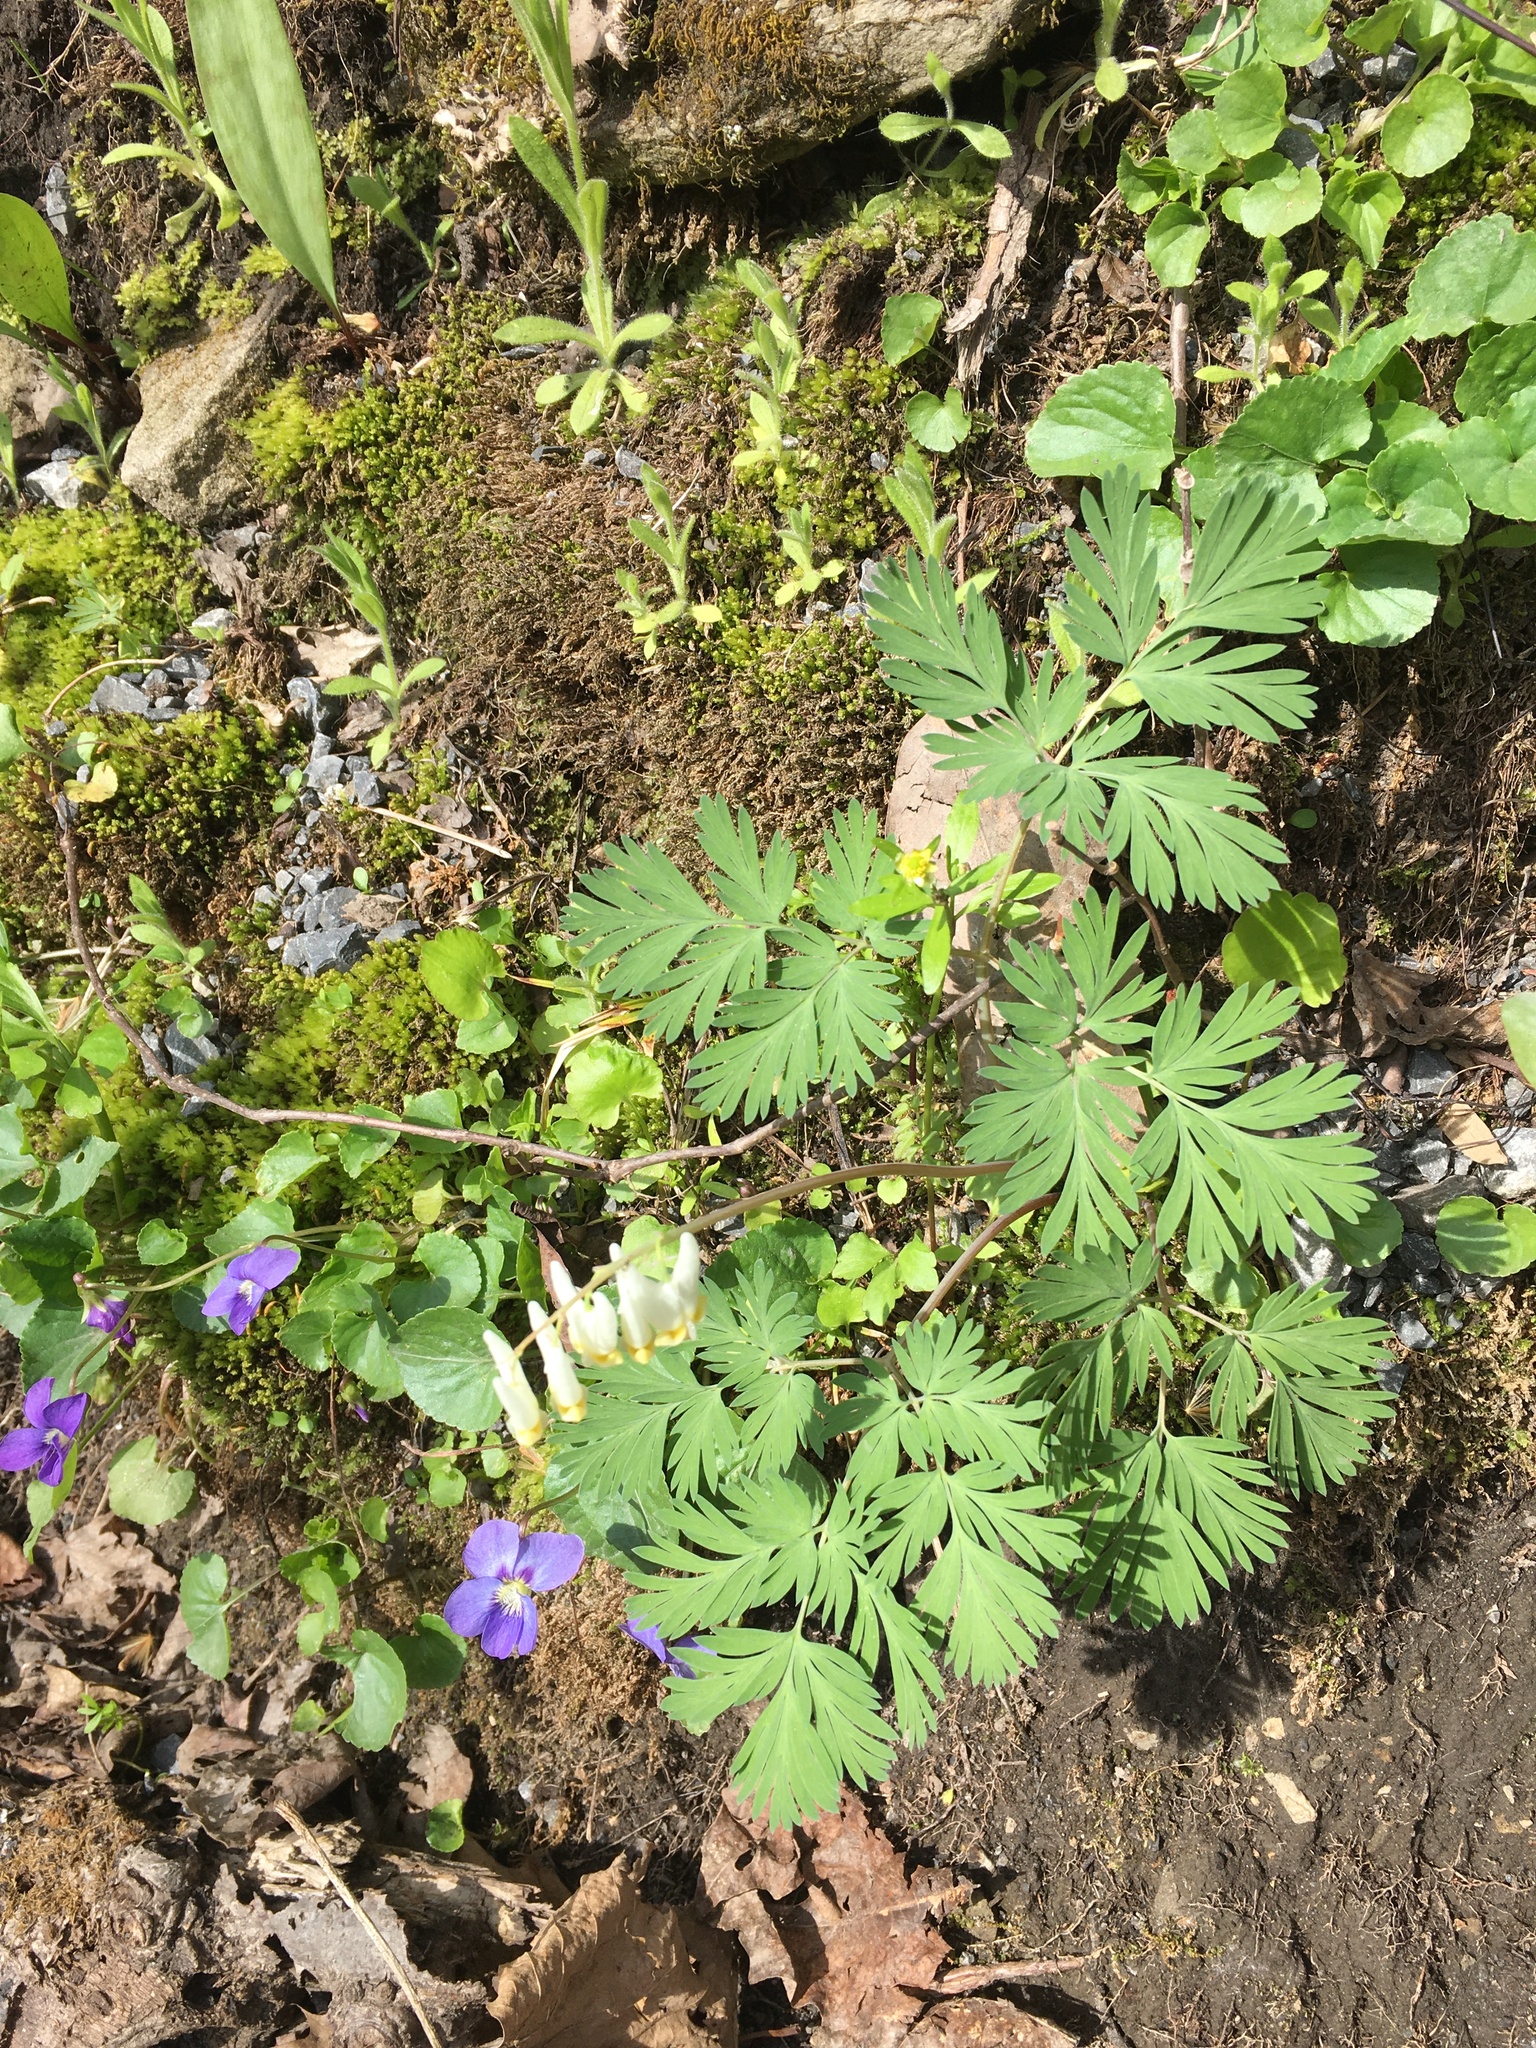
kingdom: Plantae
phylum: Tracheophyta
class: Magnoliopsida
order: Ranunculales
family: Papaveraceae
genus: Dicentra
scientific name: Dicentra cucullaria
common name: Dutchman's breeches
